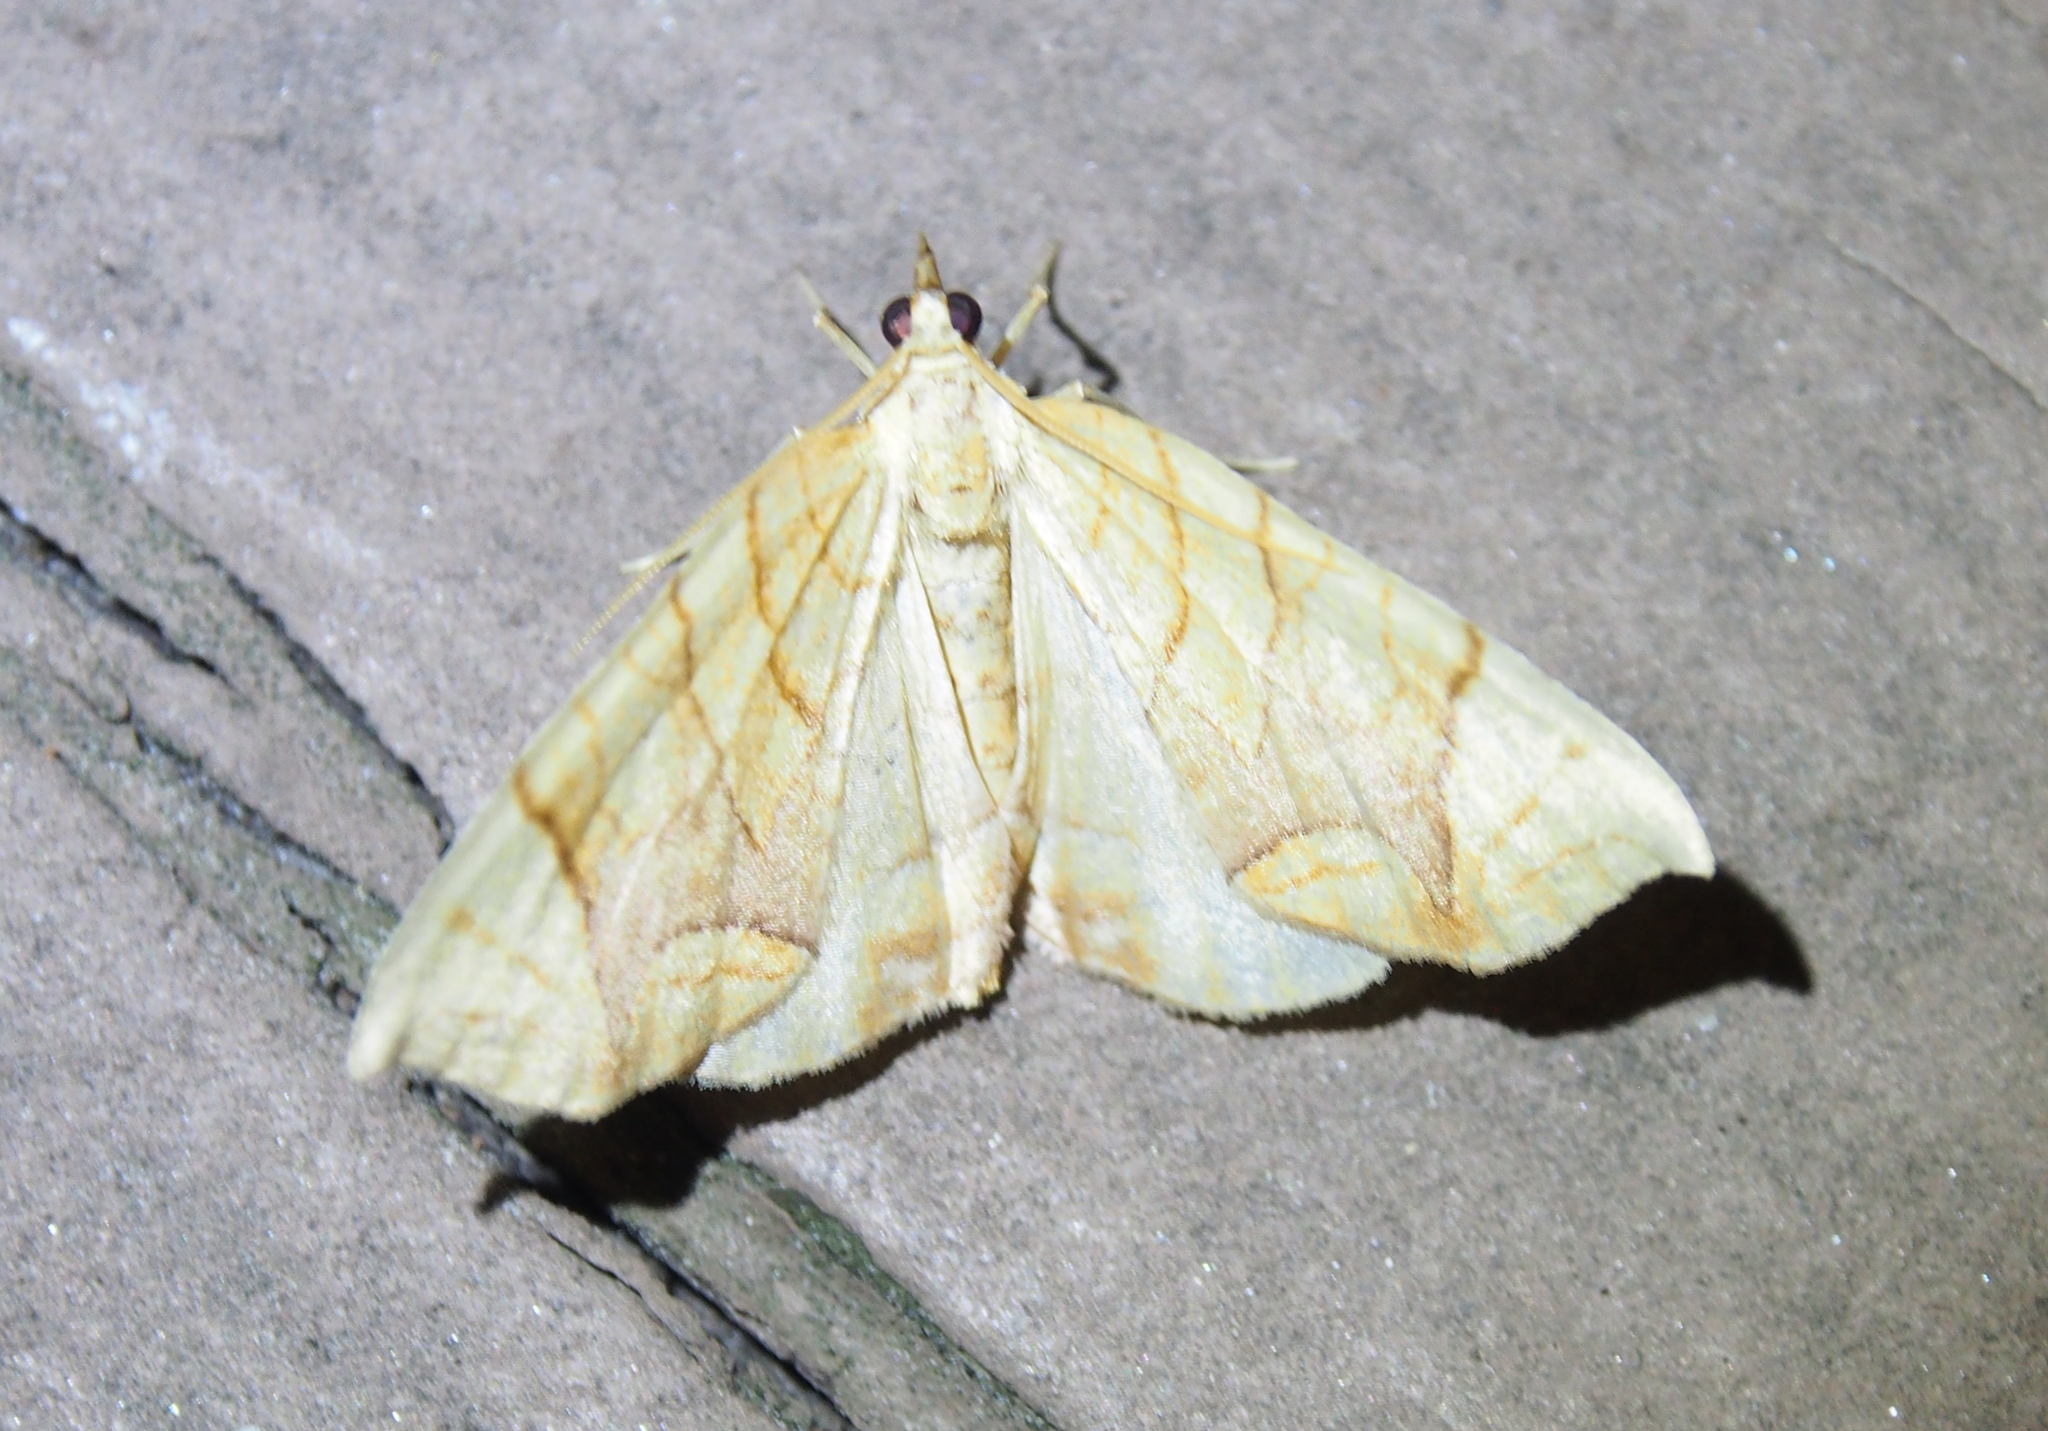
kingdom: Animalia
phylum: Arthropoda
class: Insecta
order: Lepidoptera
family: Geometridae
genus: Eulithis
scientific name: Eulithis diversilineata
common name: Grapevine looper
